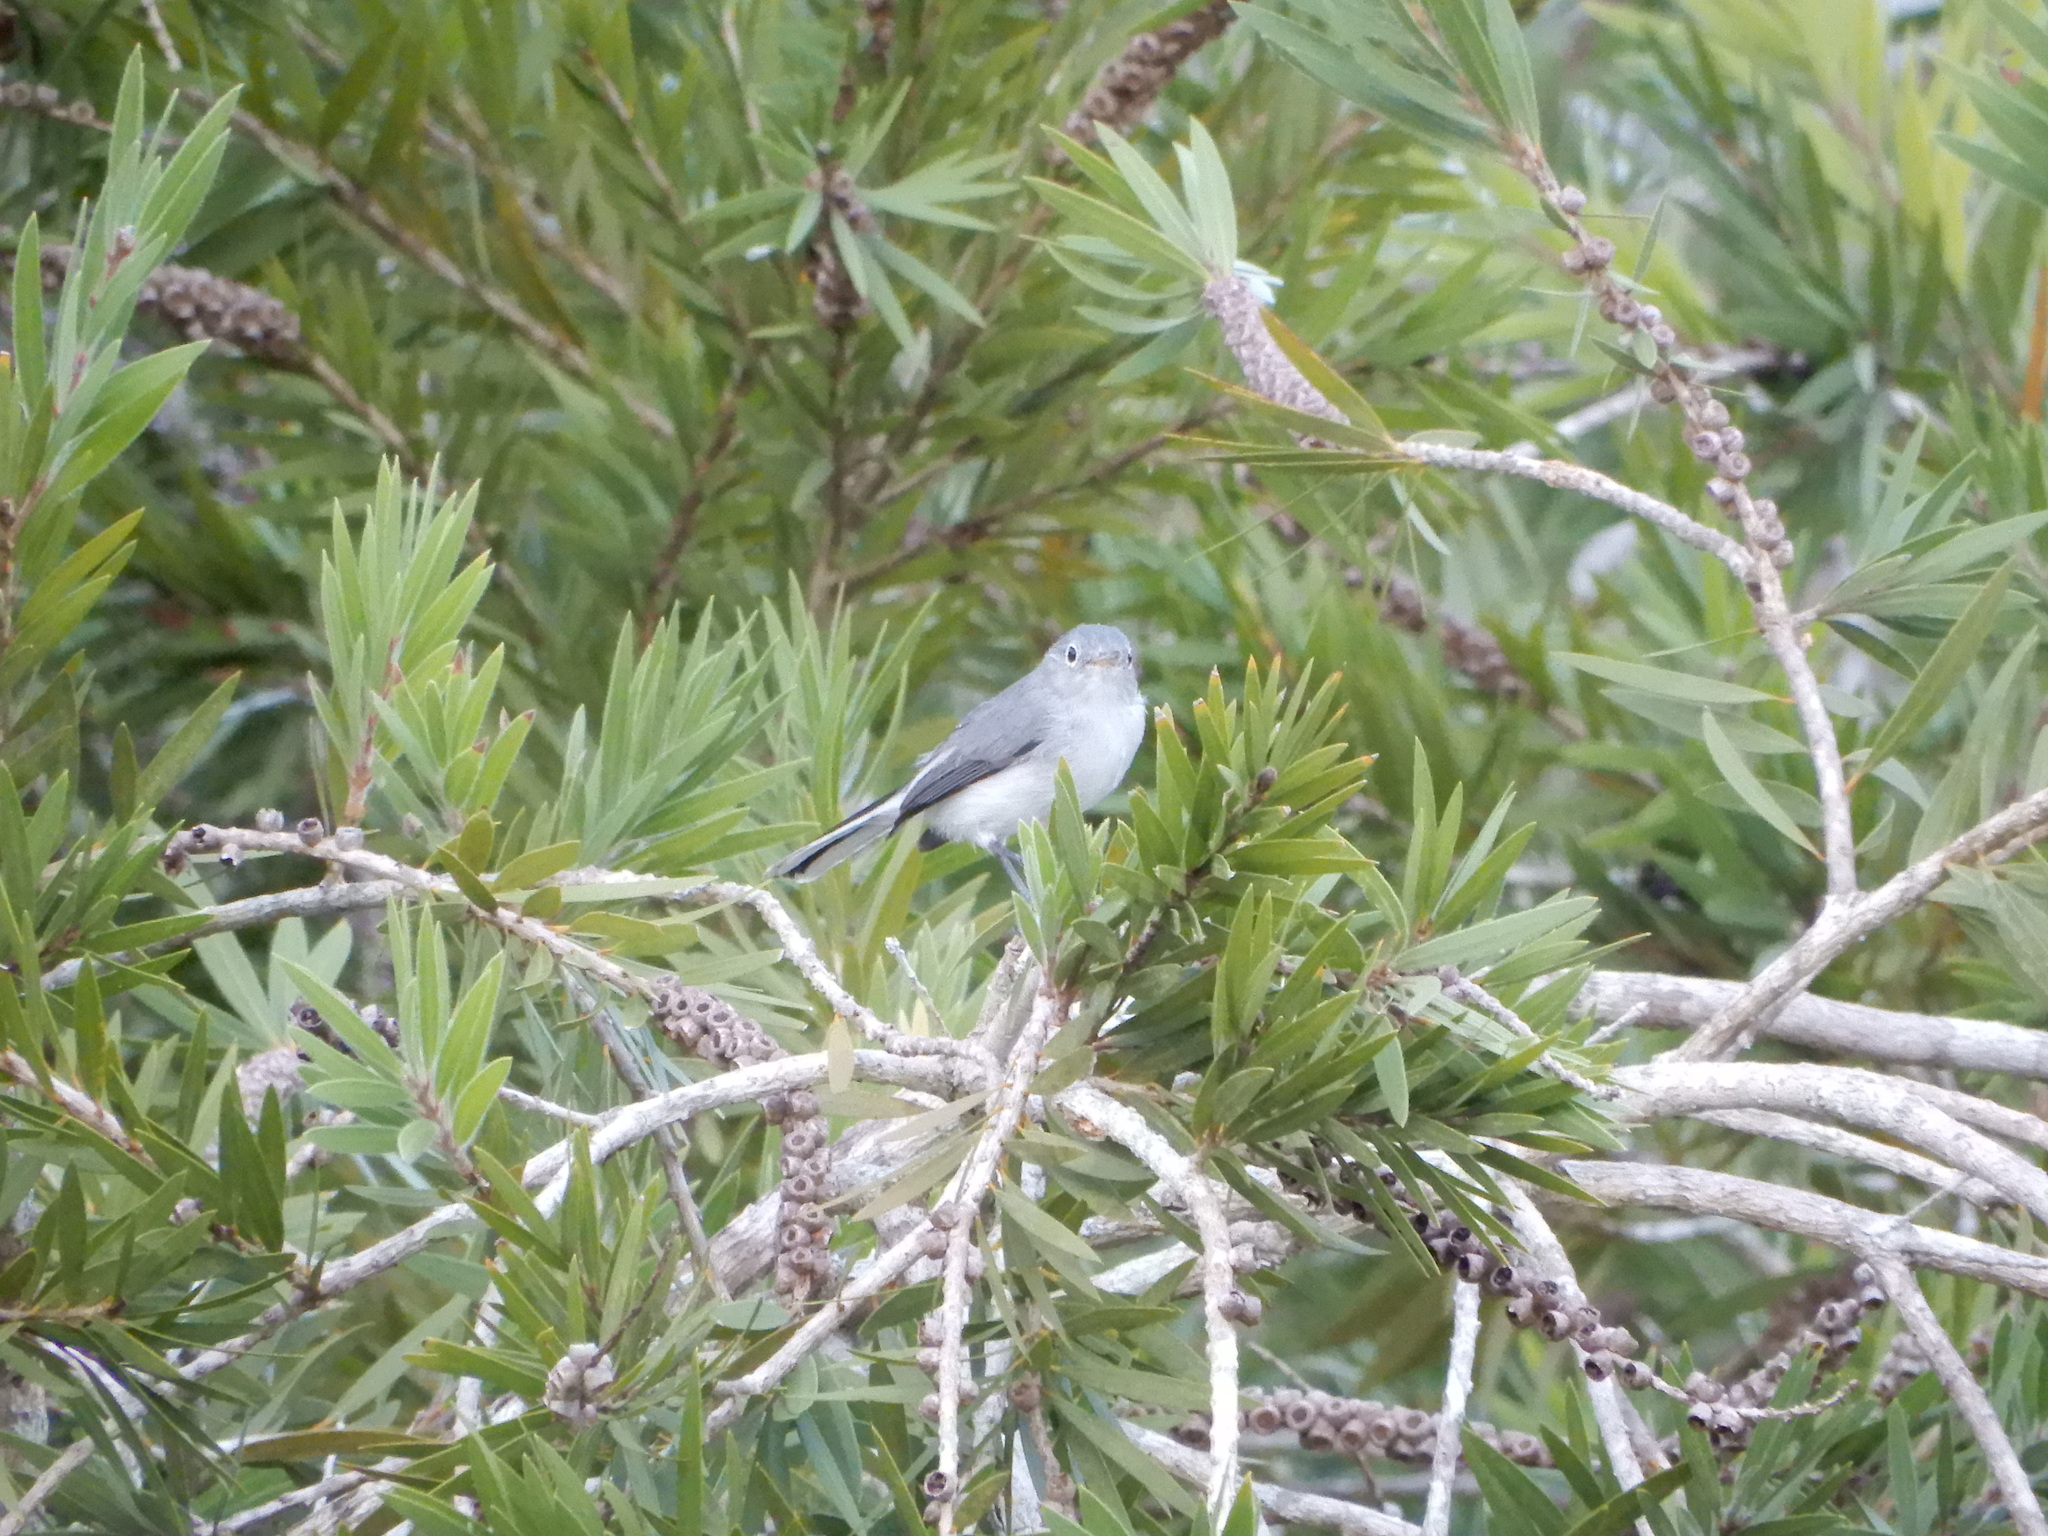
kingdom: Animalia
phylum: Chordata
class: Aves
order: Passeriformes
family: Polioptilidae
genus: Polioptila
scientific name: Polioptila caerulea
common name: Blue-gray gnatcatcher
